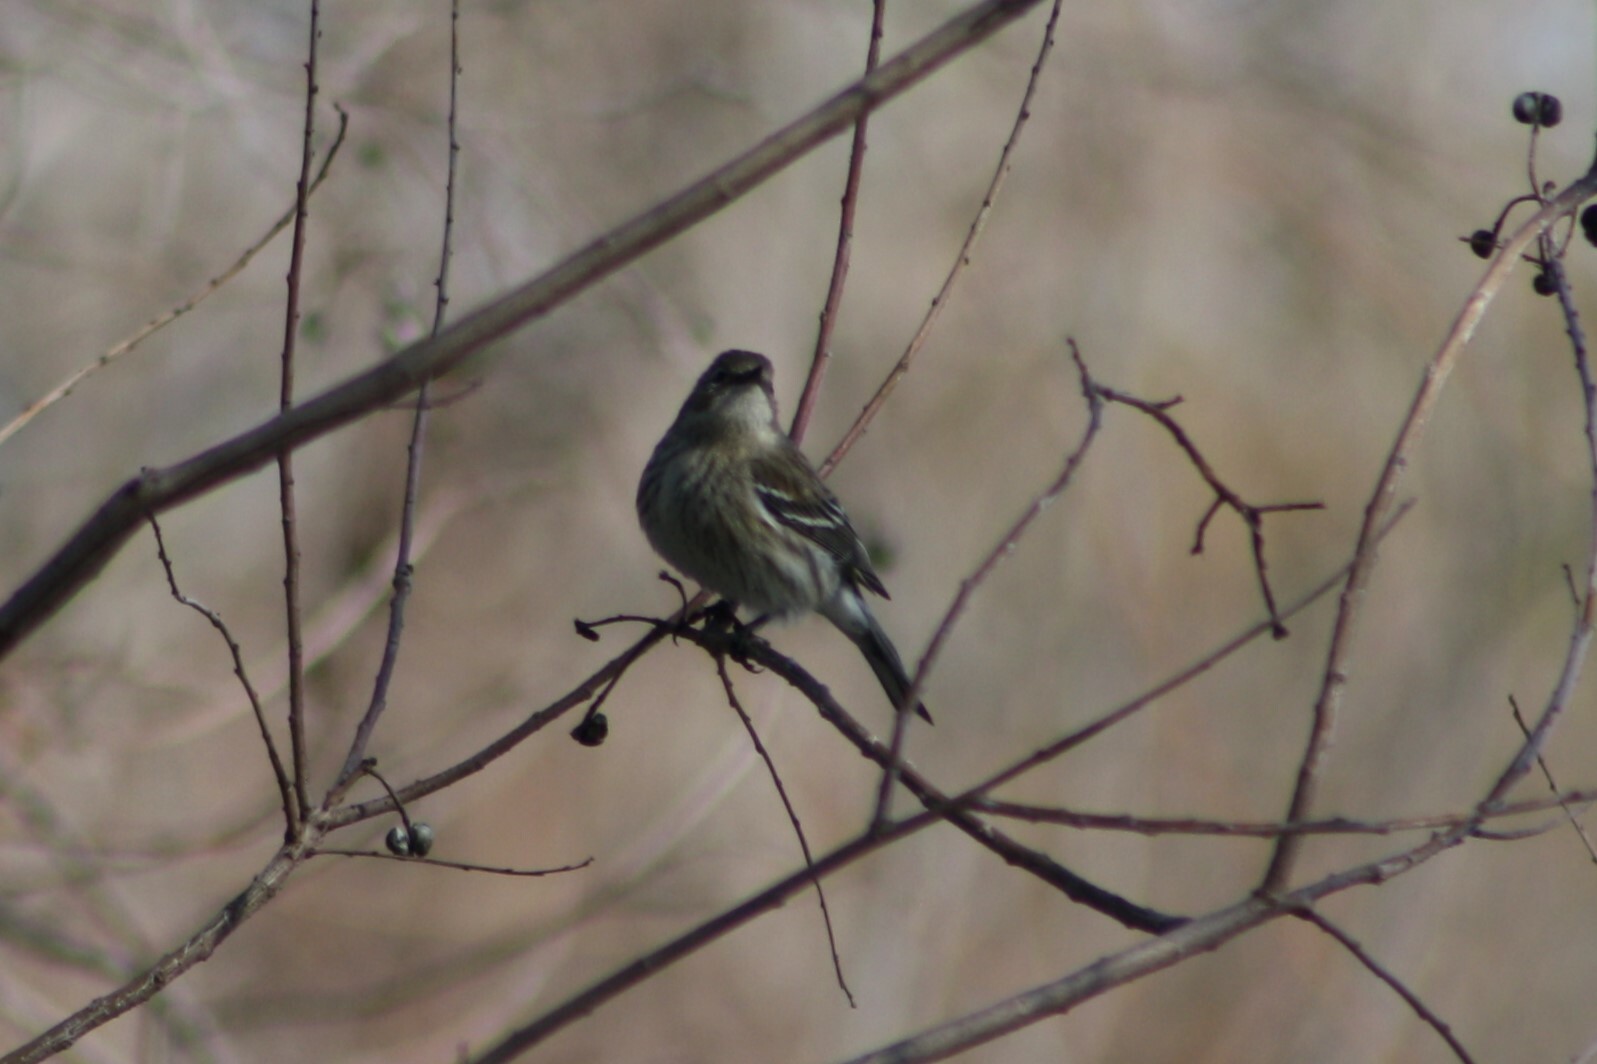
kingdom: Animalia
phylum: Chordata
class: Aves
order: Passeriformes
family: Parulidae
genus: Setophaga
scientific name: Setophaga coronata
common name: Myrtle warbler
